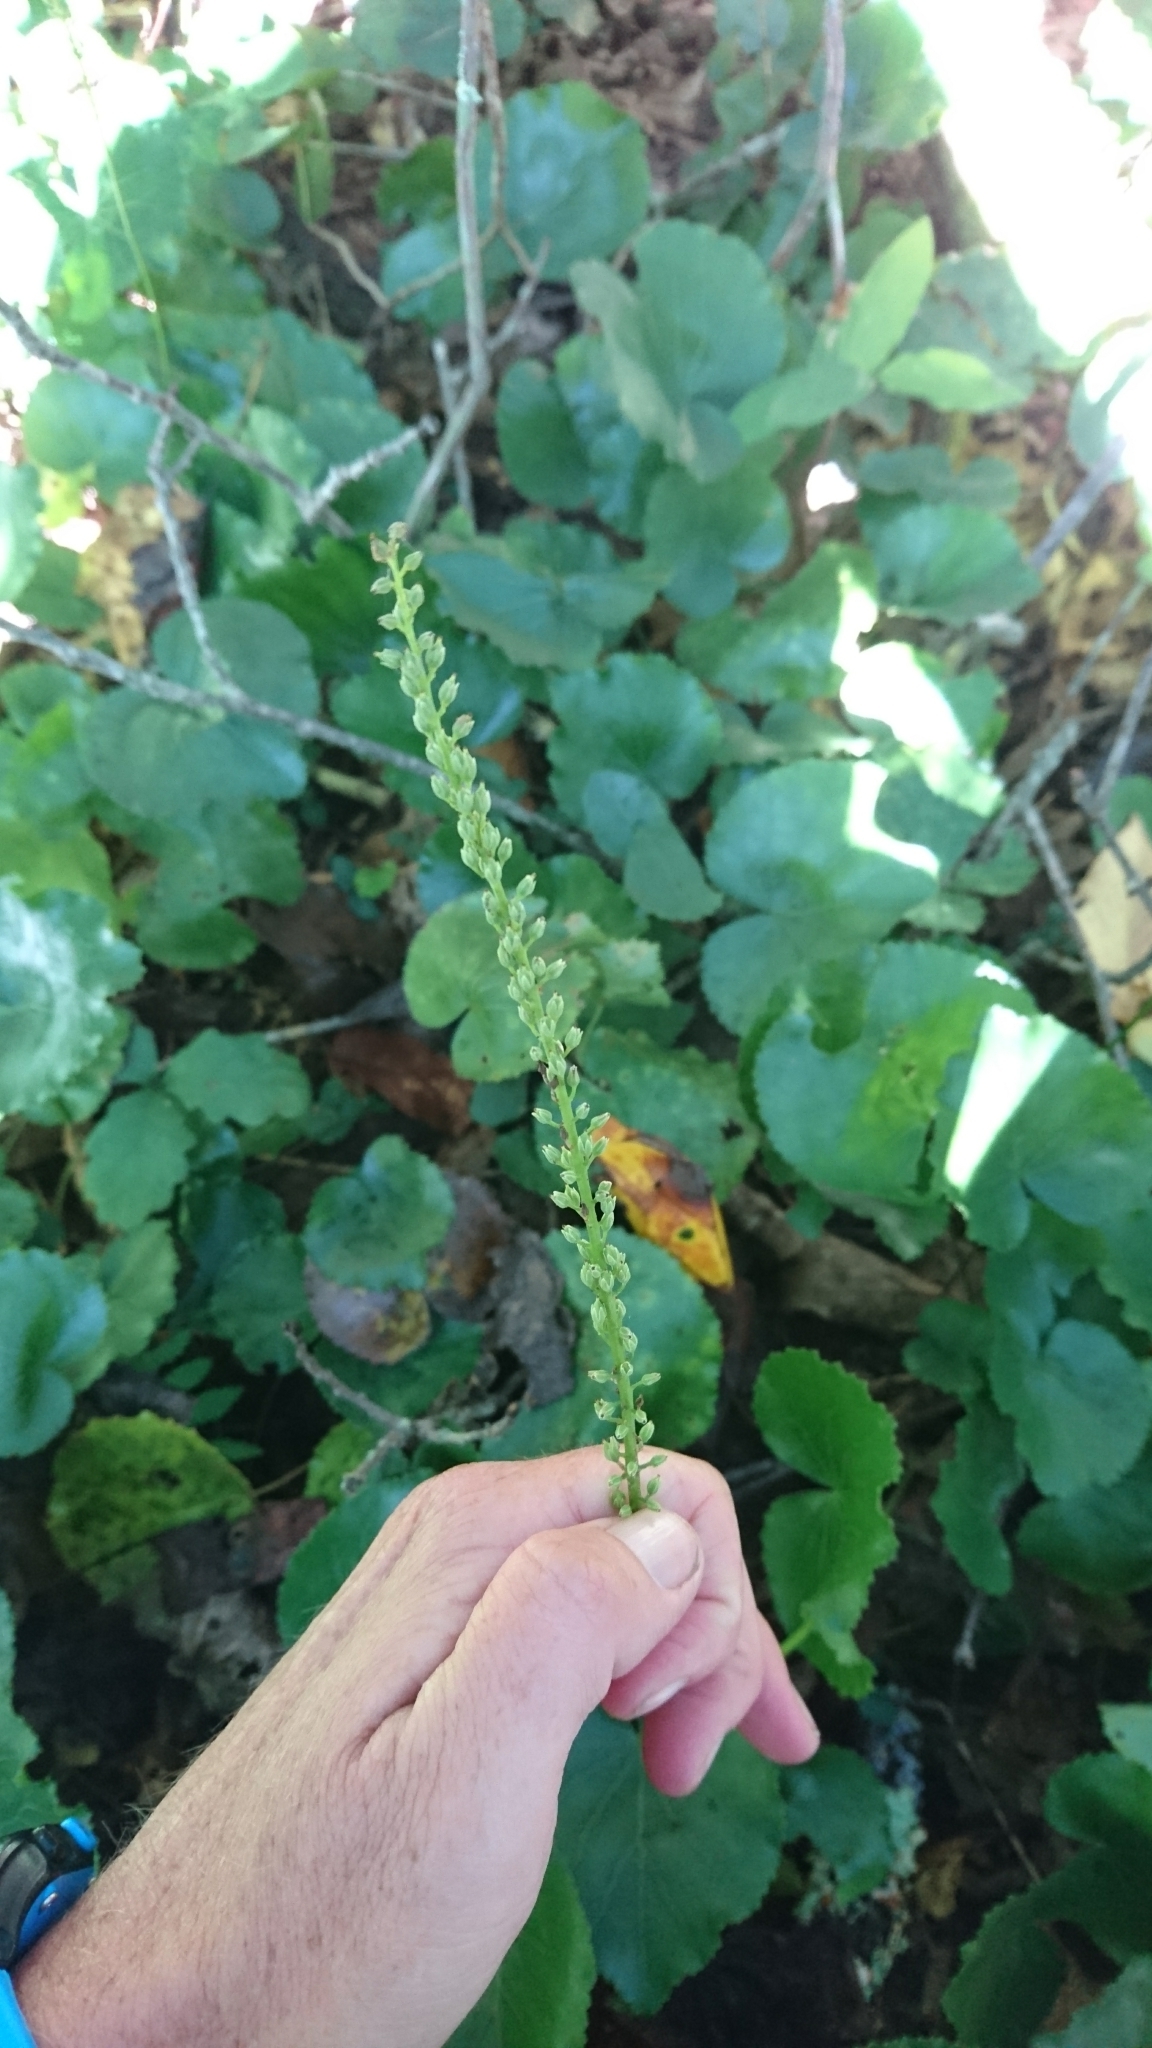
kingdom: Plantae
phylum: Tracheophyta
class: Magnoliopsida
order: Ericales
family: Diapensiaceae
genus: Galax
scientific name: Galax urceolata
